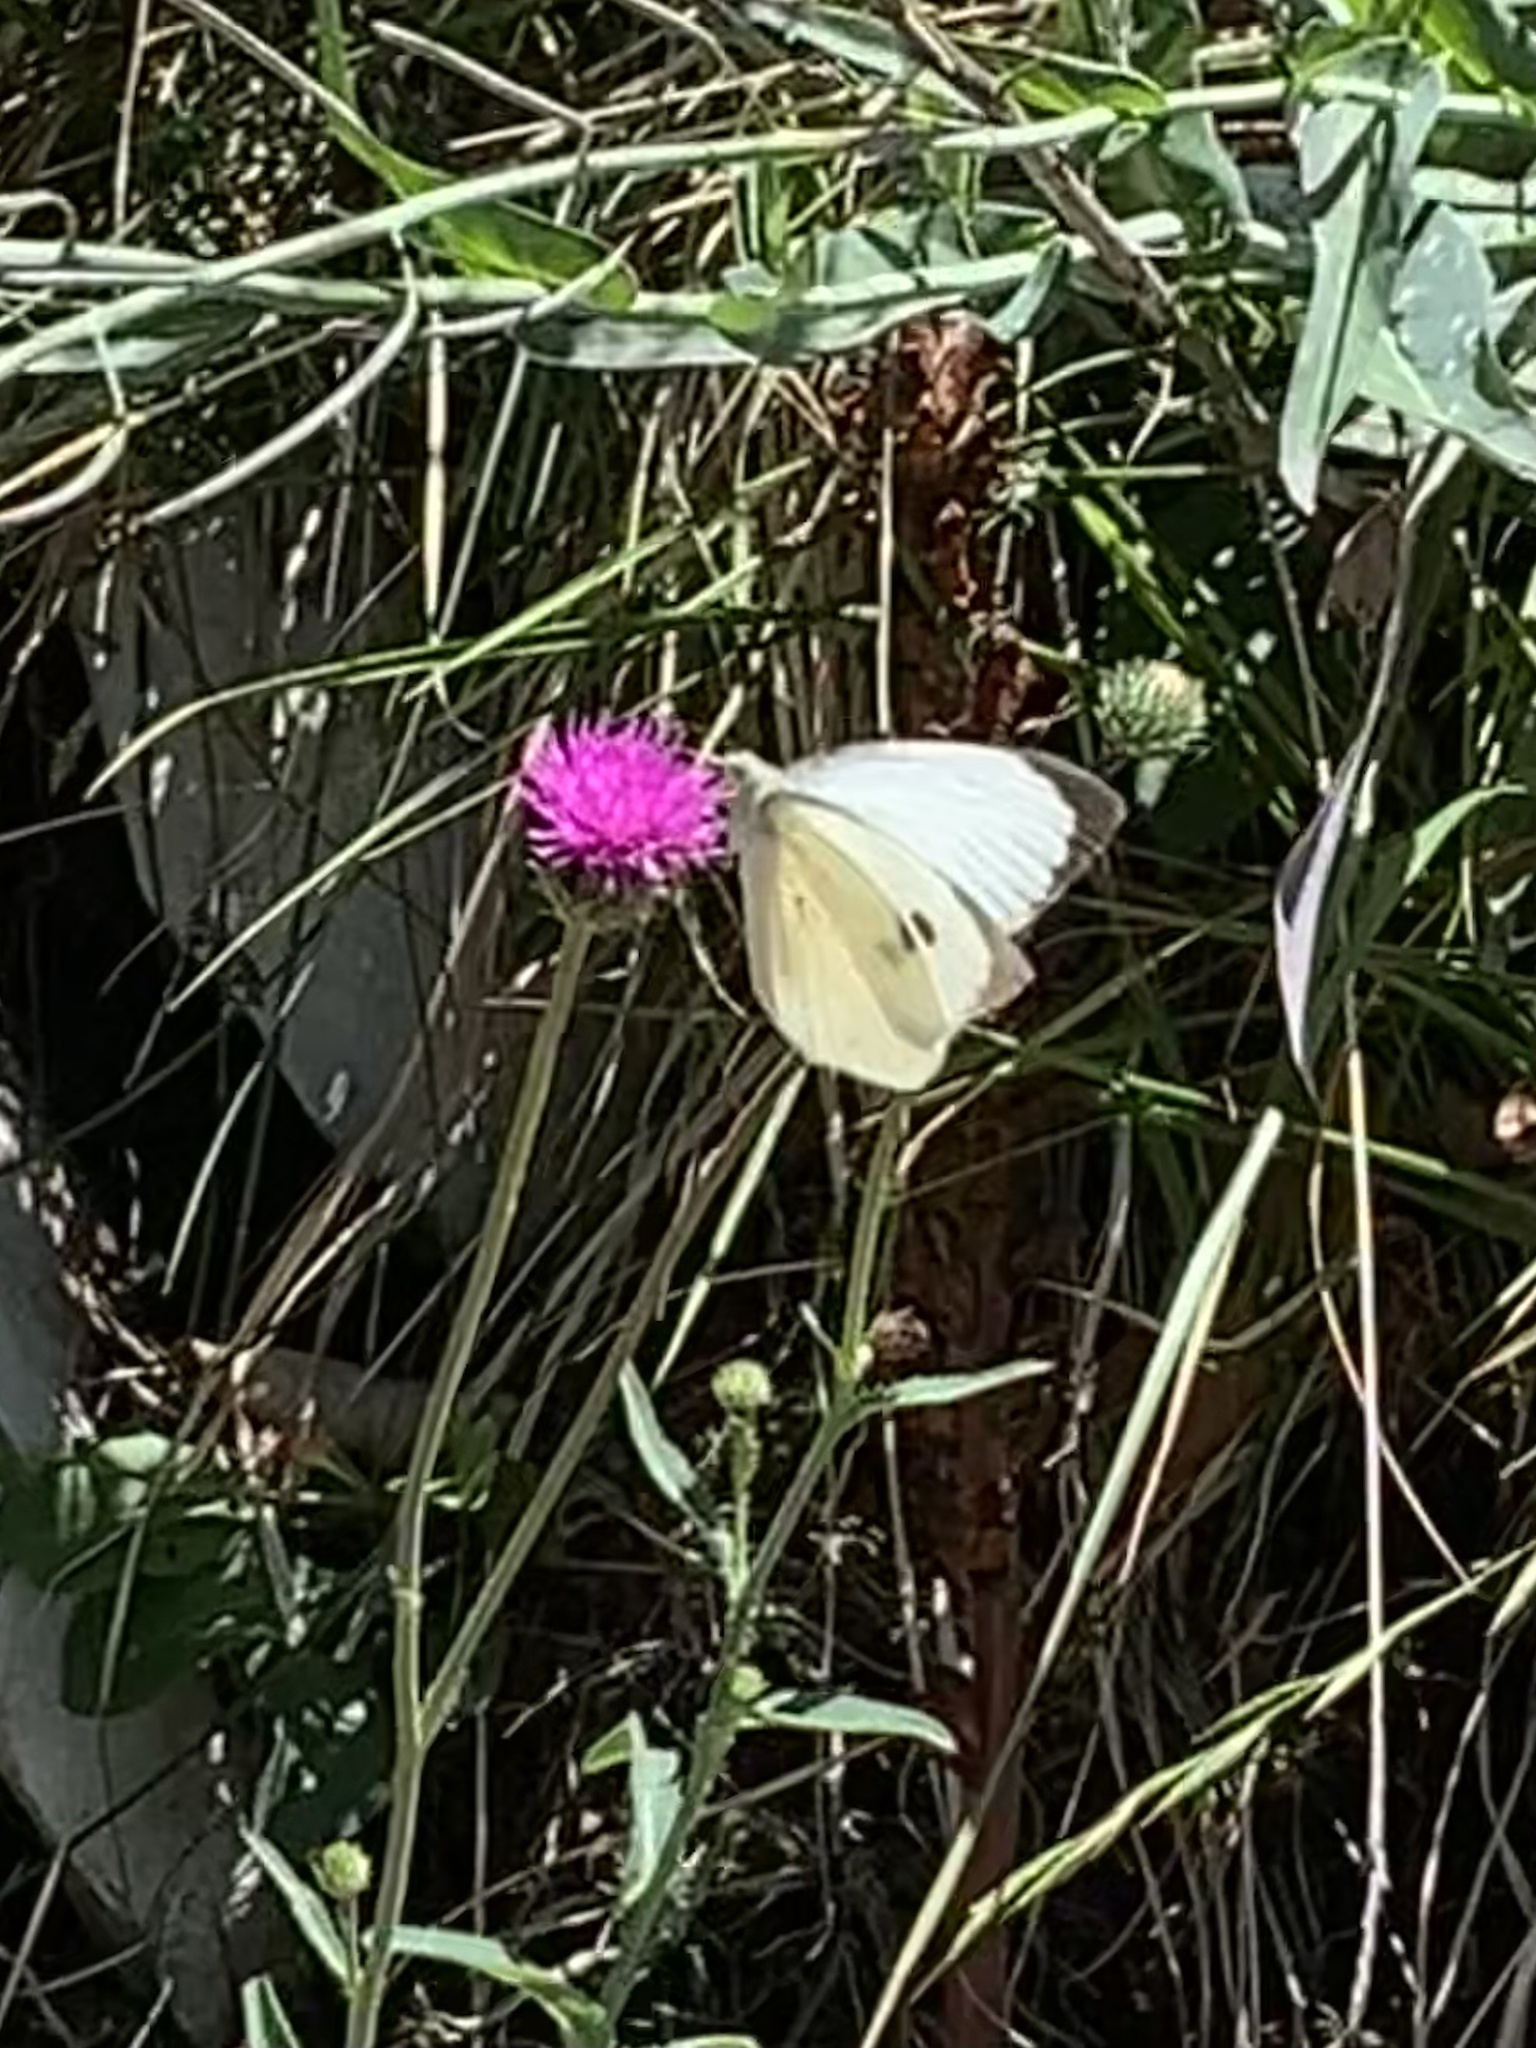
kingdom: Animalia
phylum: Arthropoda
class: Insecta
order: Lepidoptera
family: Pieridae
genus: Pieris
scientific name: Pieris brassicae
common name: Large white
